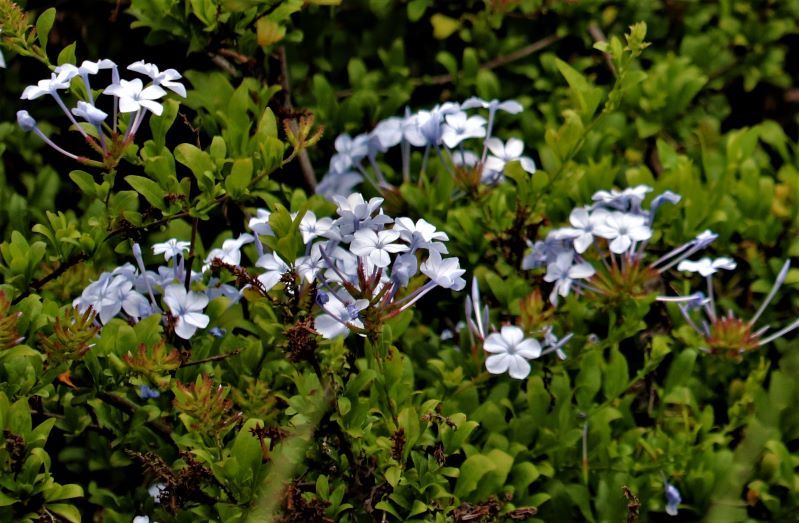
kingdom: Plantae
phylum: Tracheophyta
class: Magnoliopsida
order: Caryophyllales
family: Plumbaginaceae
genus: Plumbago
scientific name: Plumbago auriculata
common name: Cape leadwort
